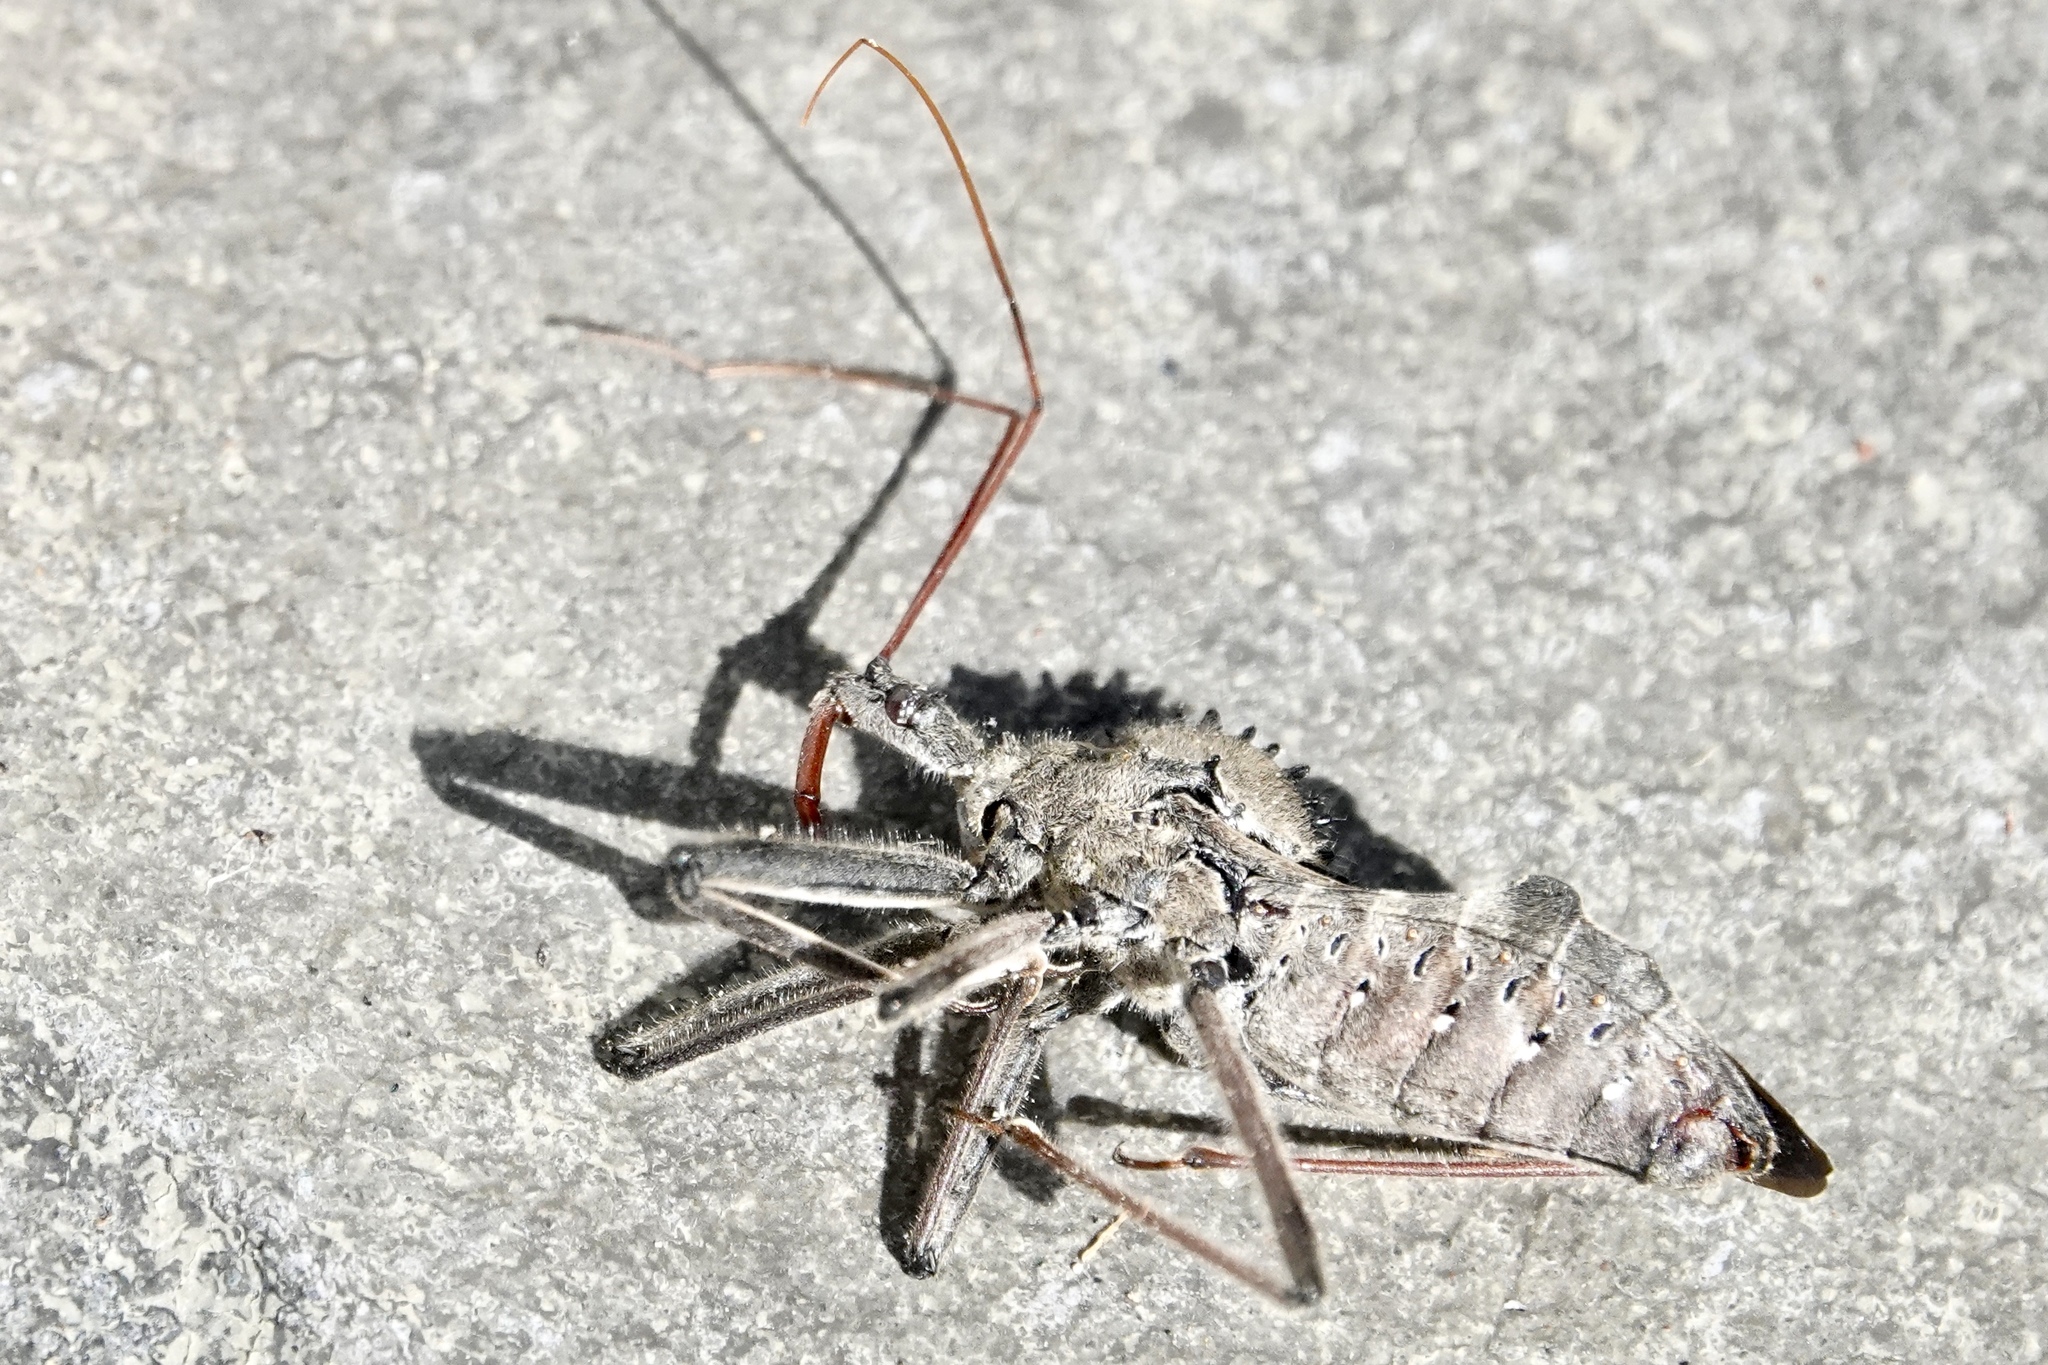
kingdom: Animalia
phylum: Arthropoda
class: Insecta
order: Hemiptera
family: Reduviidae
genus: Arilus
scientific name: Arilus cristatus
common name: North american wheel bug
